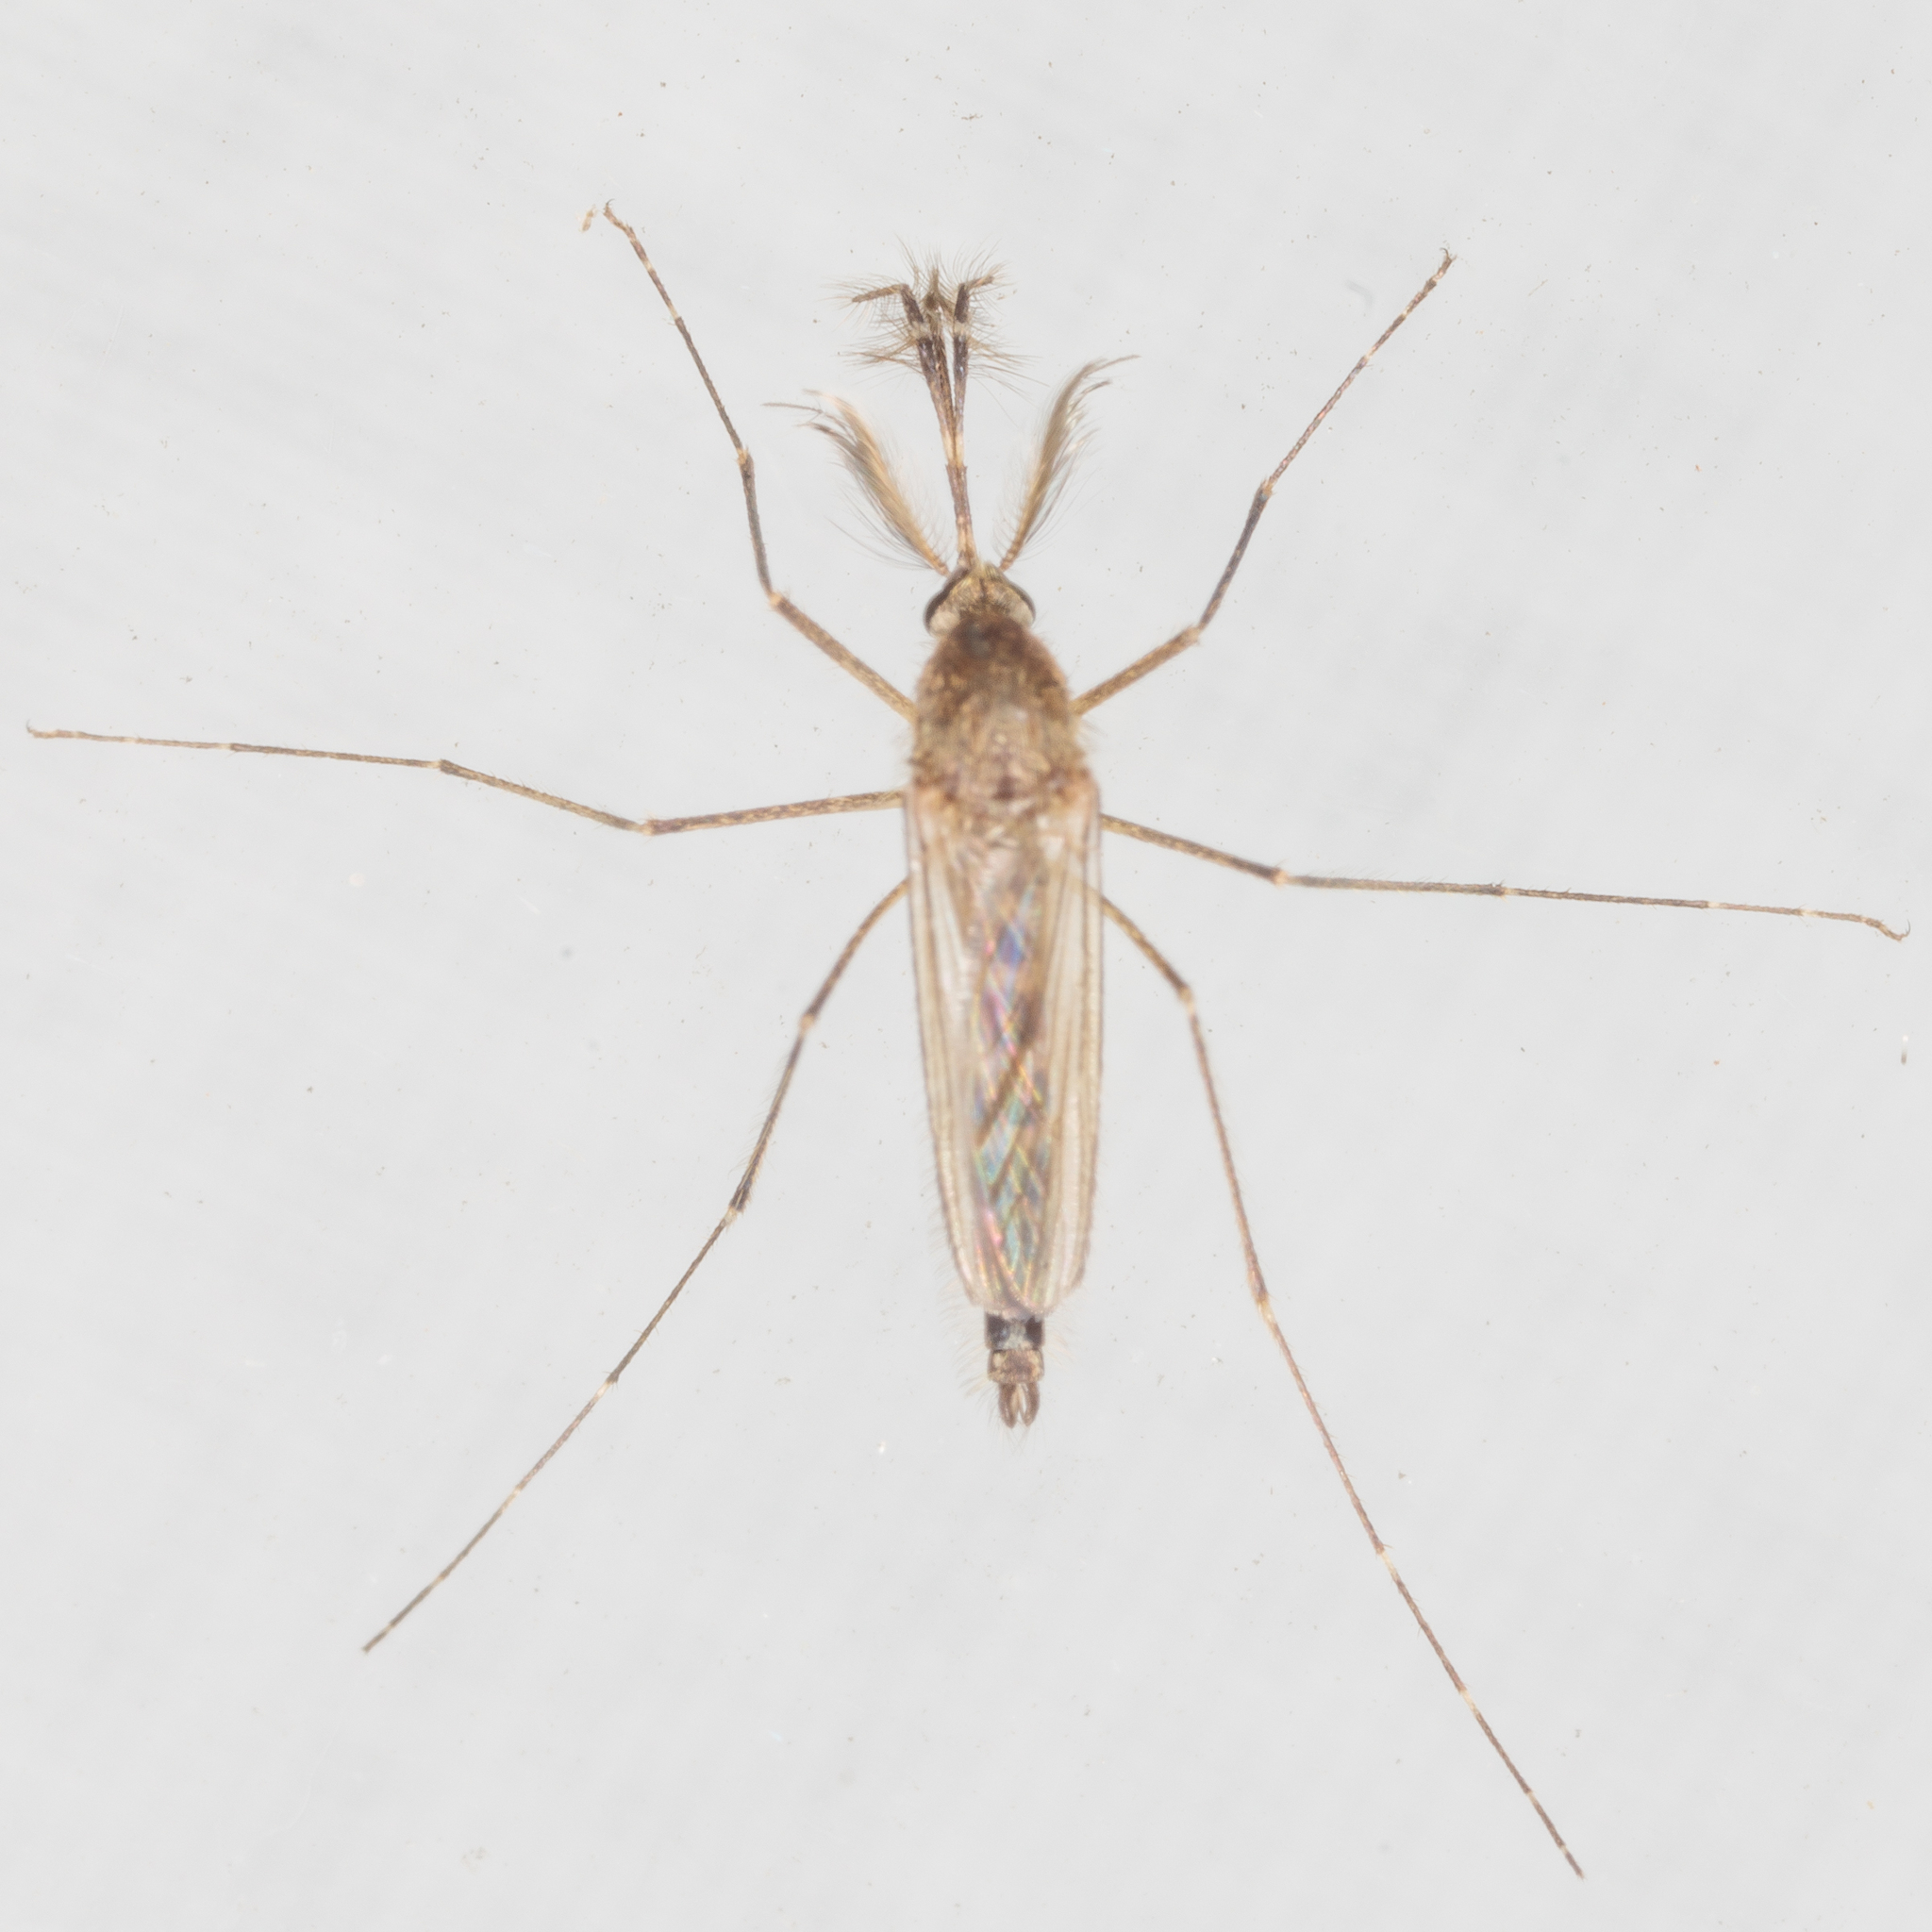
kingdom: Animalia
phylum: Arthropoda
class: Insecta
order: Diptera
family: Culicidae
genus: Aedes
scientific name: Aedes vexans
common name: Inland floodwater mosquito
